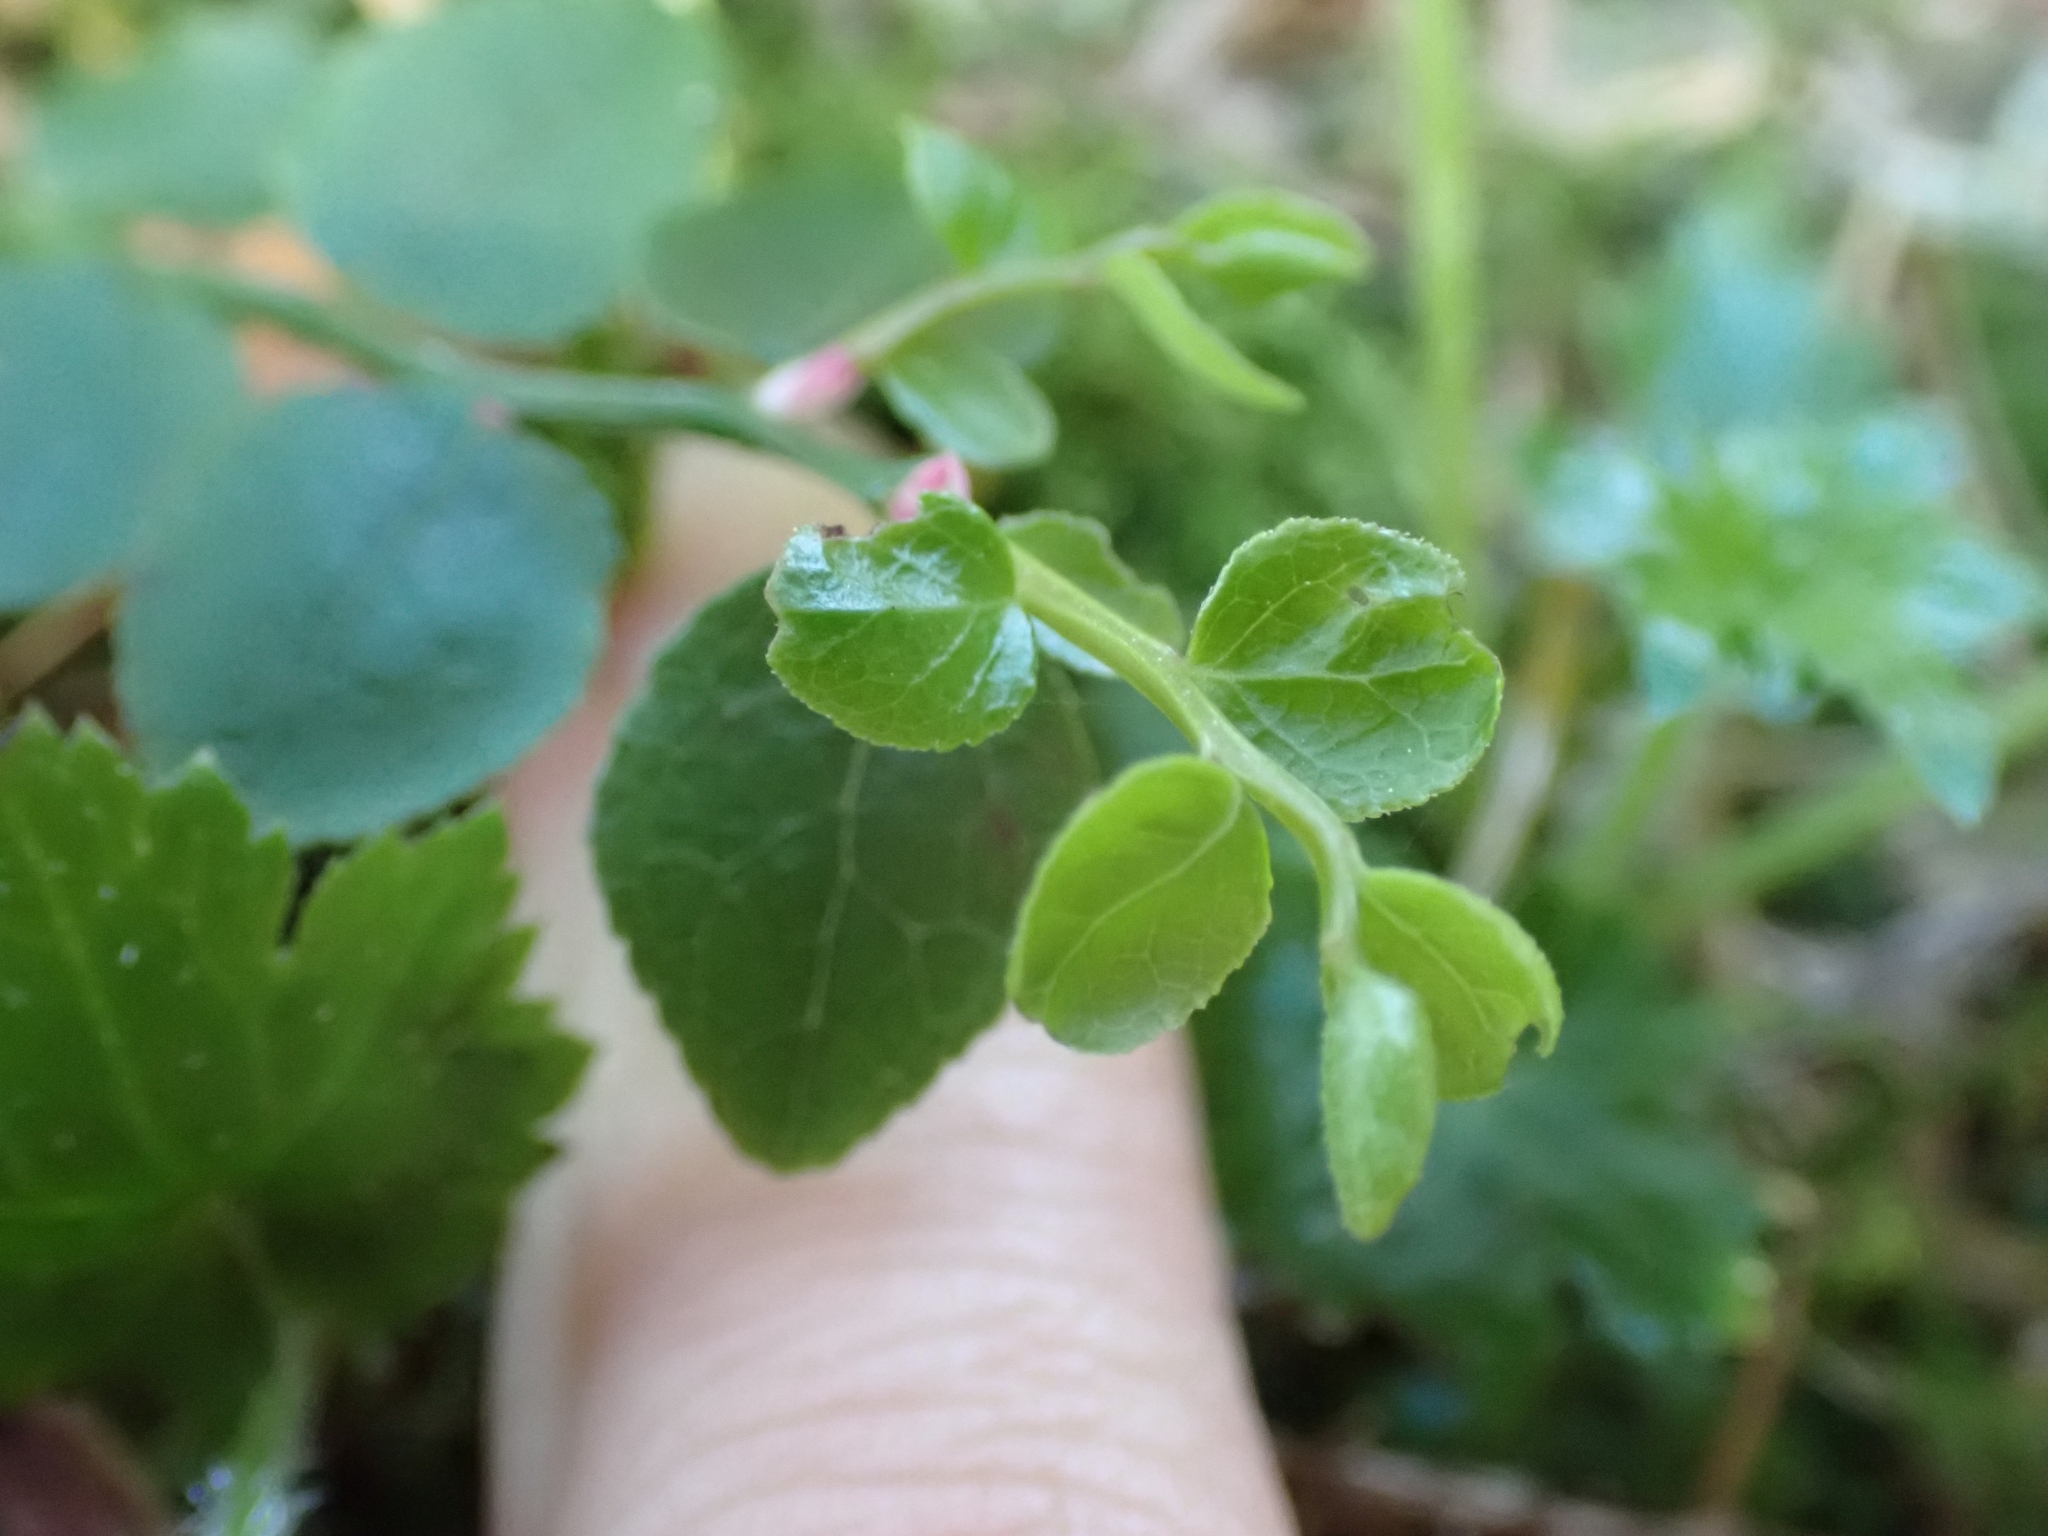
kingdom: Plantae
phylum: Tracheophyta
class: Magnoliopsida
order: Ericales
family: Ericaceae
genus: Vaccinium
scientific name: Vaccinium parvifolium
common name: Red-huckleberry
